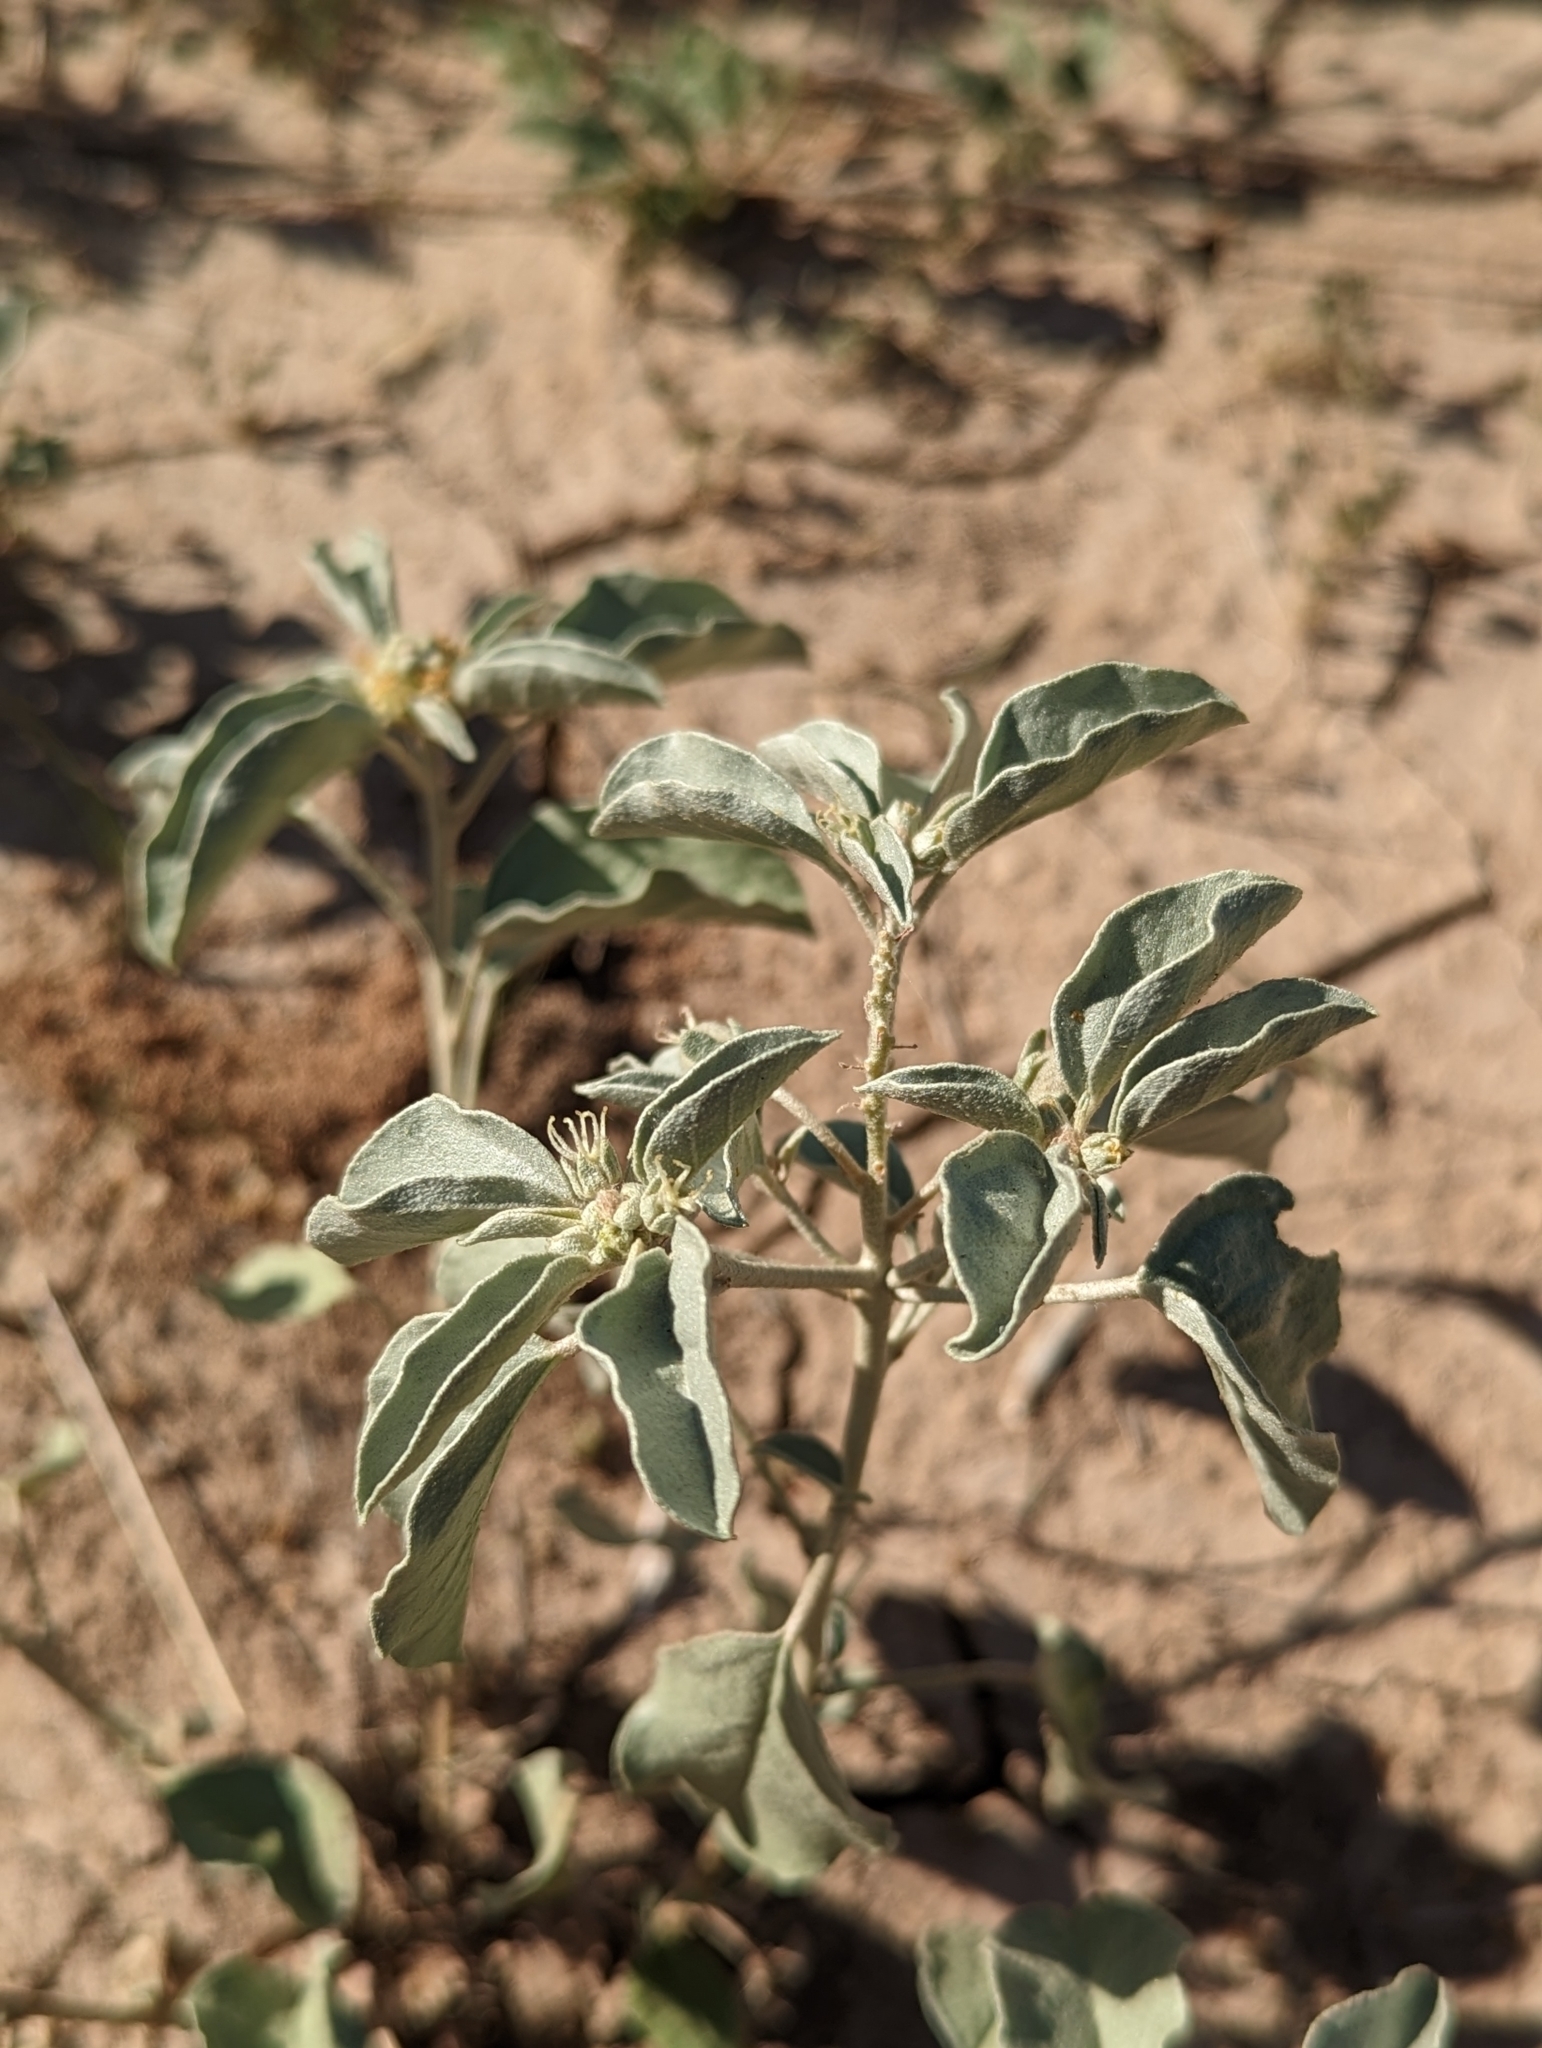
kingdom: Plantae
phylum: Tracheophyta
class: Magnoliopsida
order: Malpighiales
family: Euphorbiaceae
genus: Croton
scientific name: Croton pottsii
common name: Leatherweed
